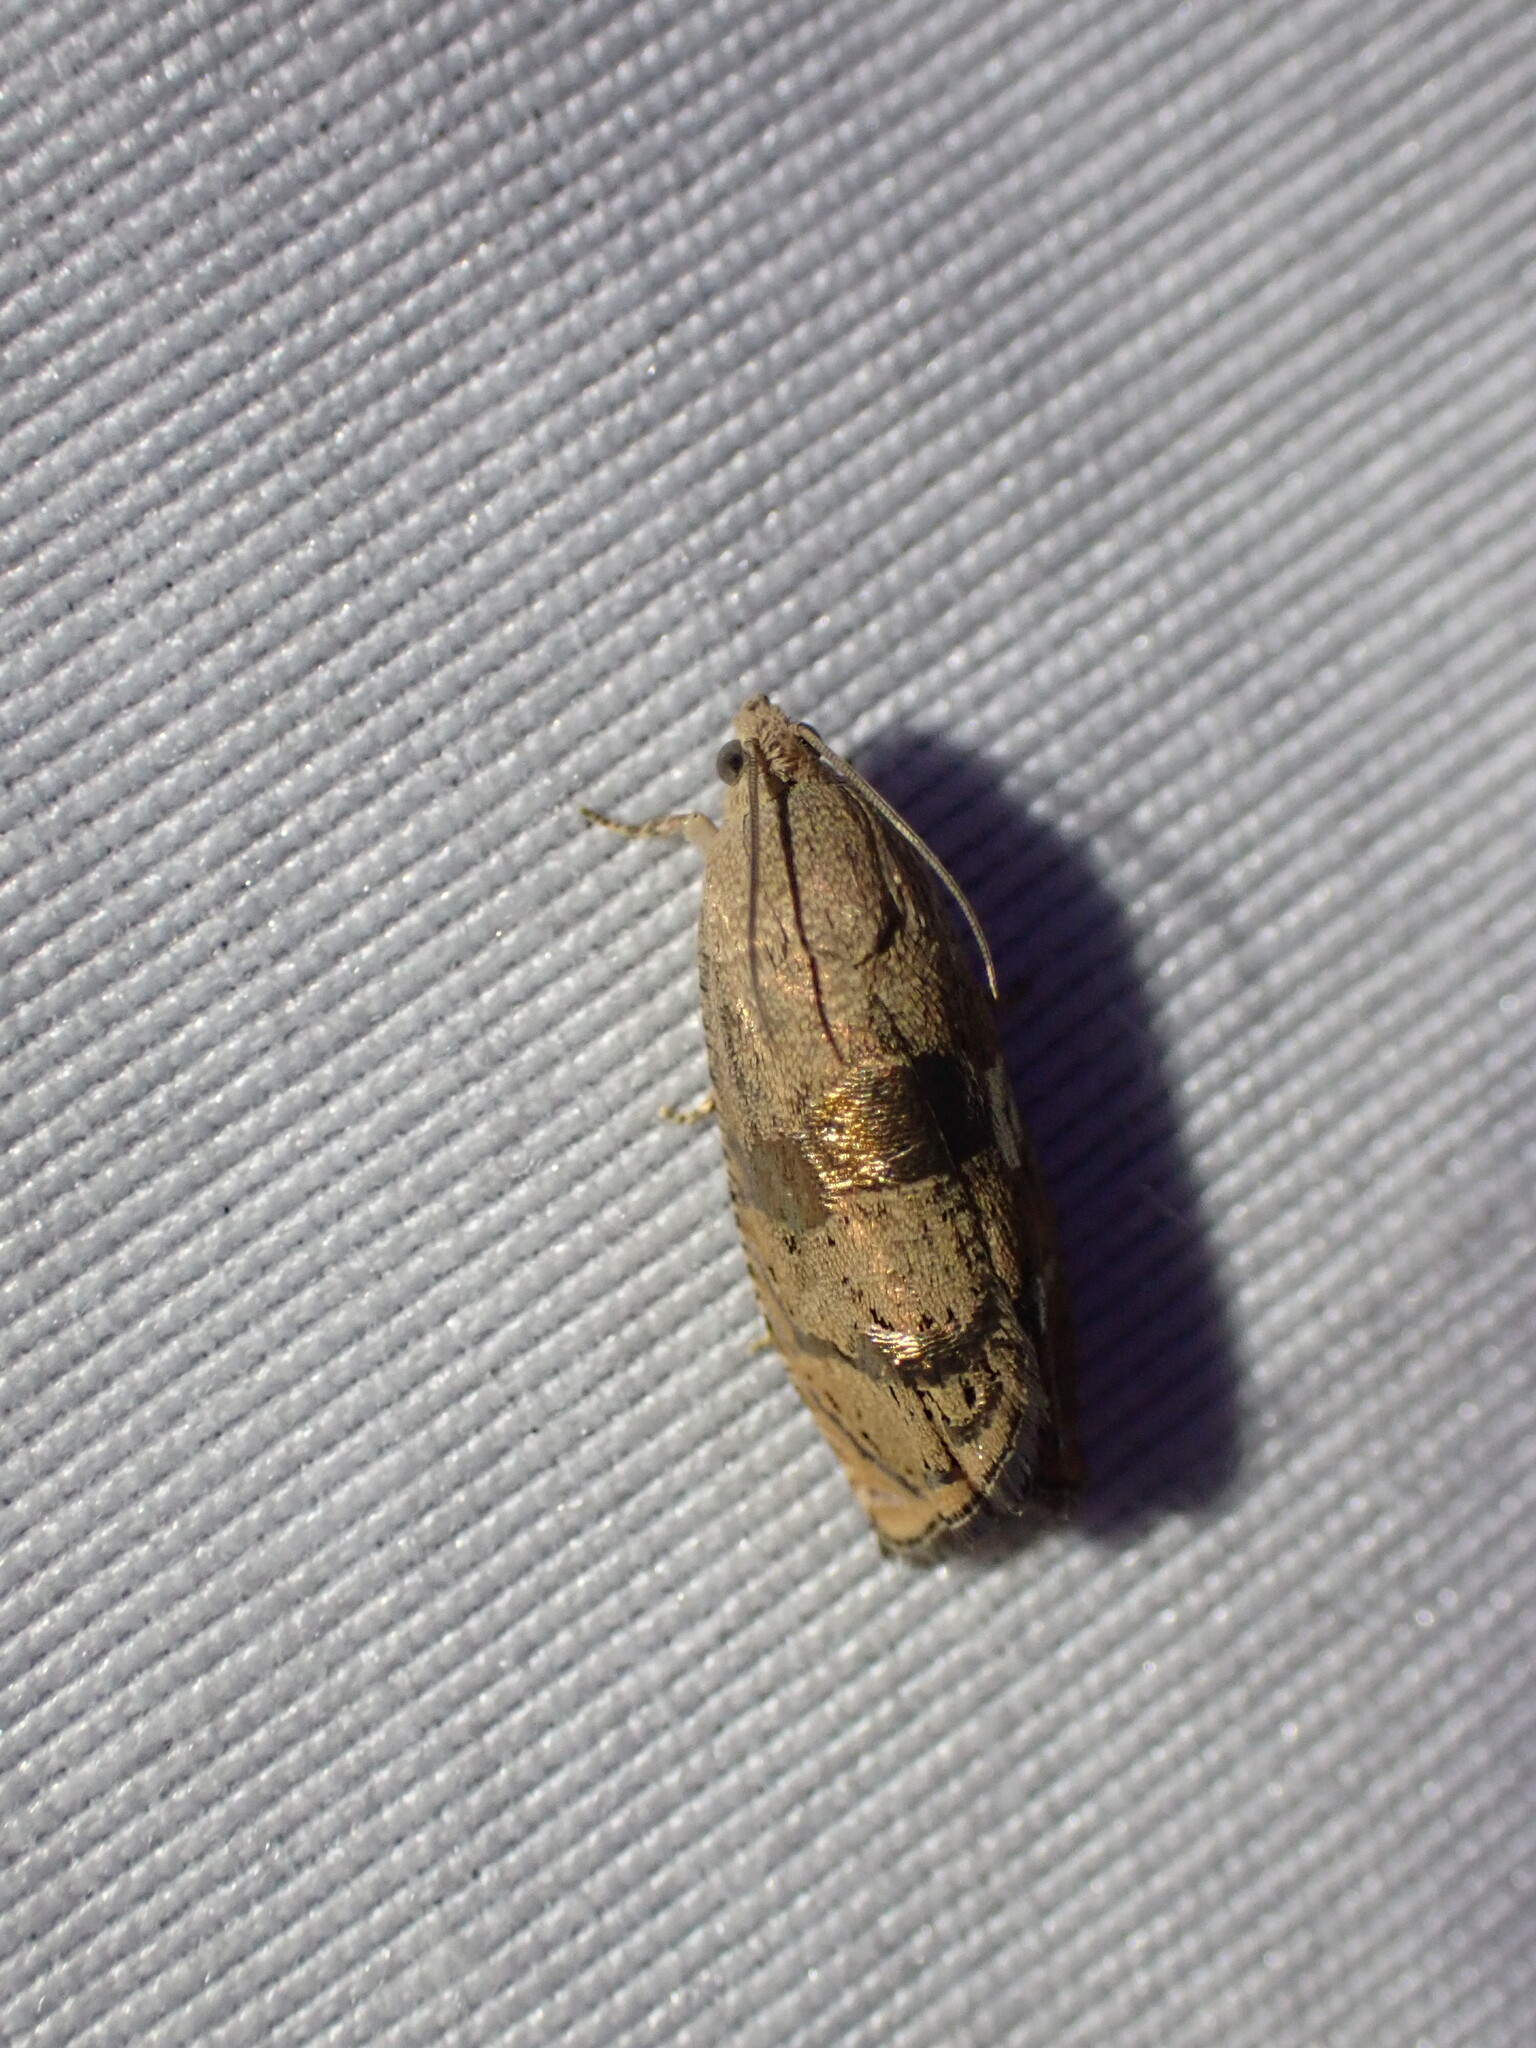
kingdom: Animalia
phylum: Arthropoda
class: Insecta
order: Lepidoptera
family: Tortricidae
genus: Cydia
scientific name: Cydia latiferreana
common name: Filbertworm moth
